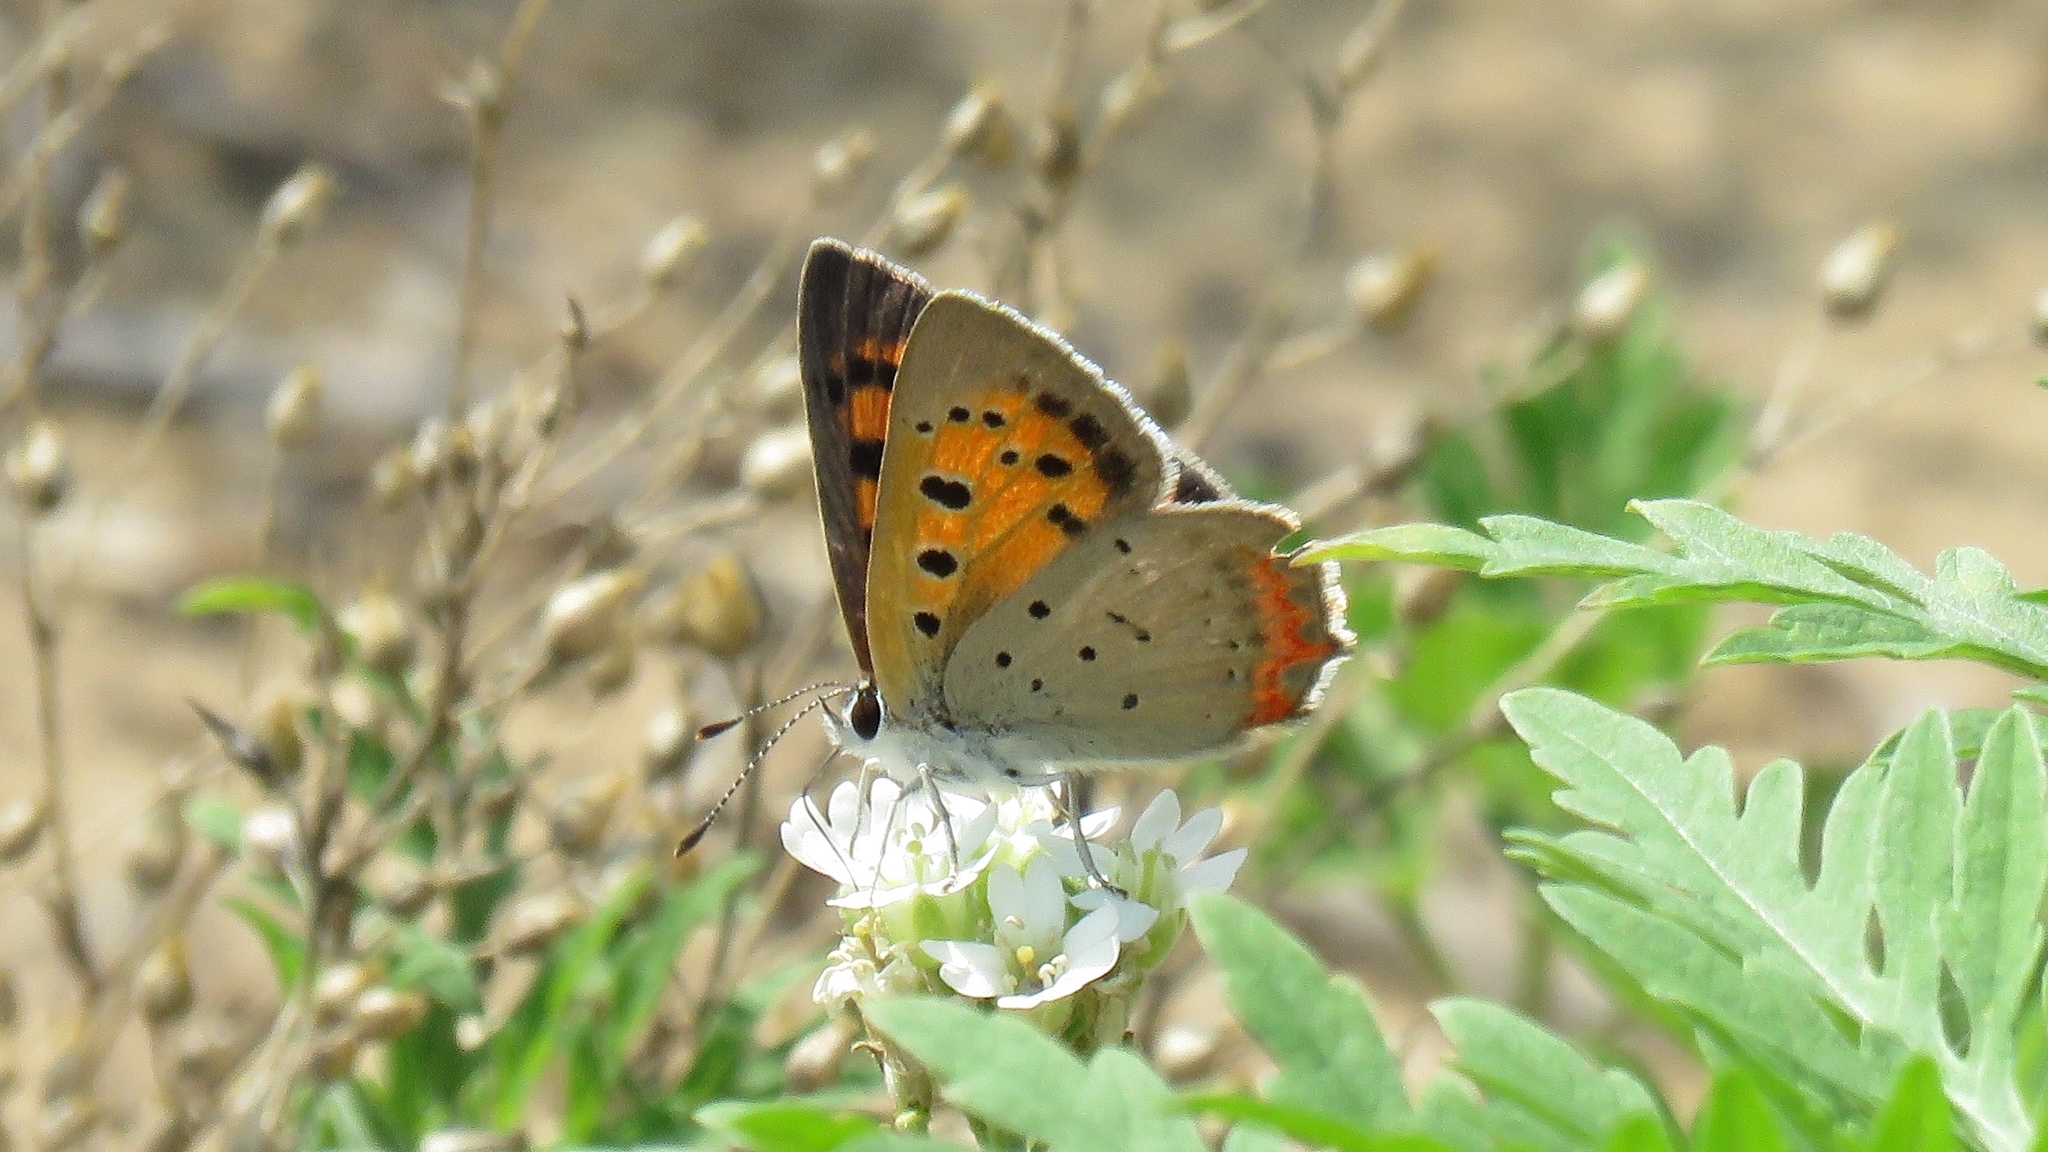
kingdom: Animalia
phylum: Arthropoda
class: Insecta
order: Lepidoptera
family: Lycaenidae
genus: Lycaena
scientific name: Lycaena hypophlaeas
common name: American copper
